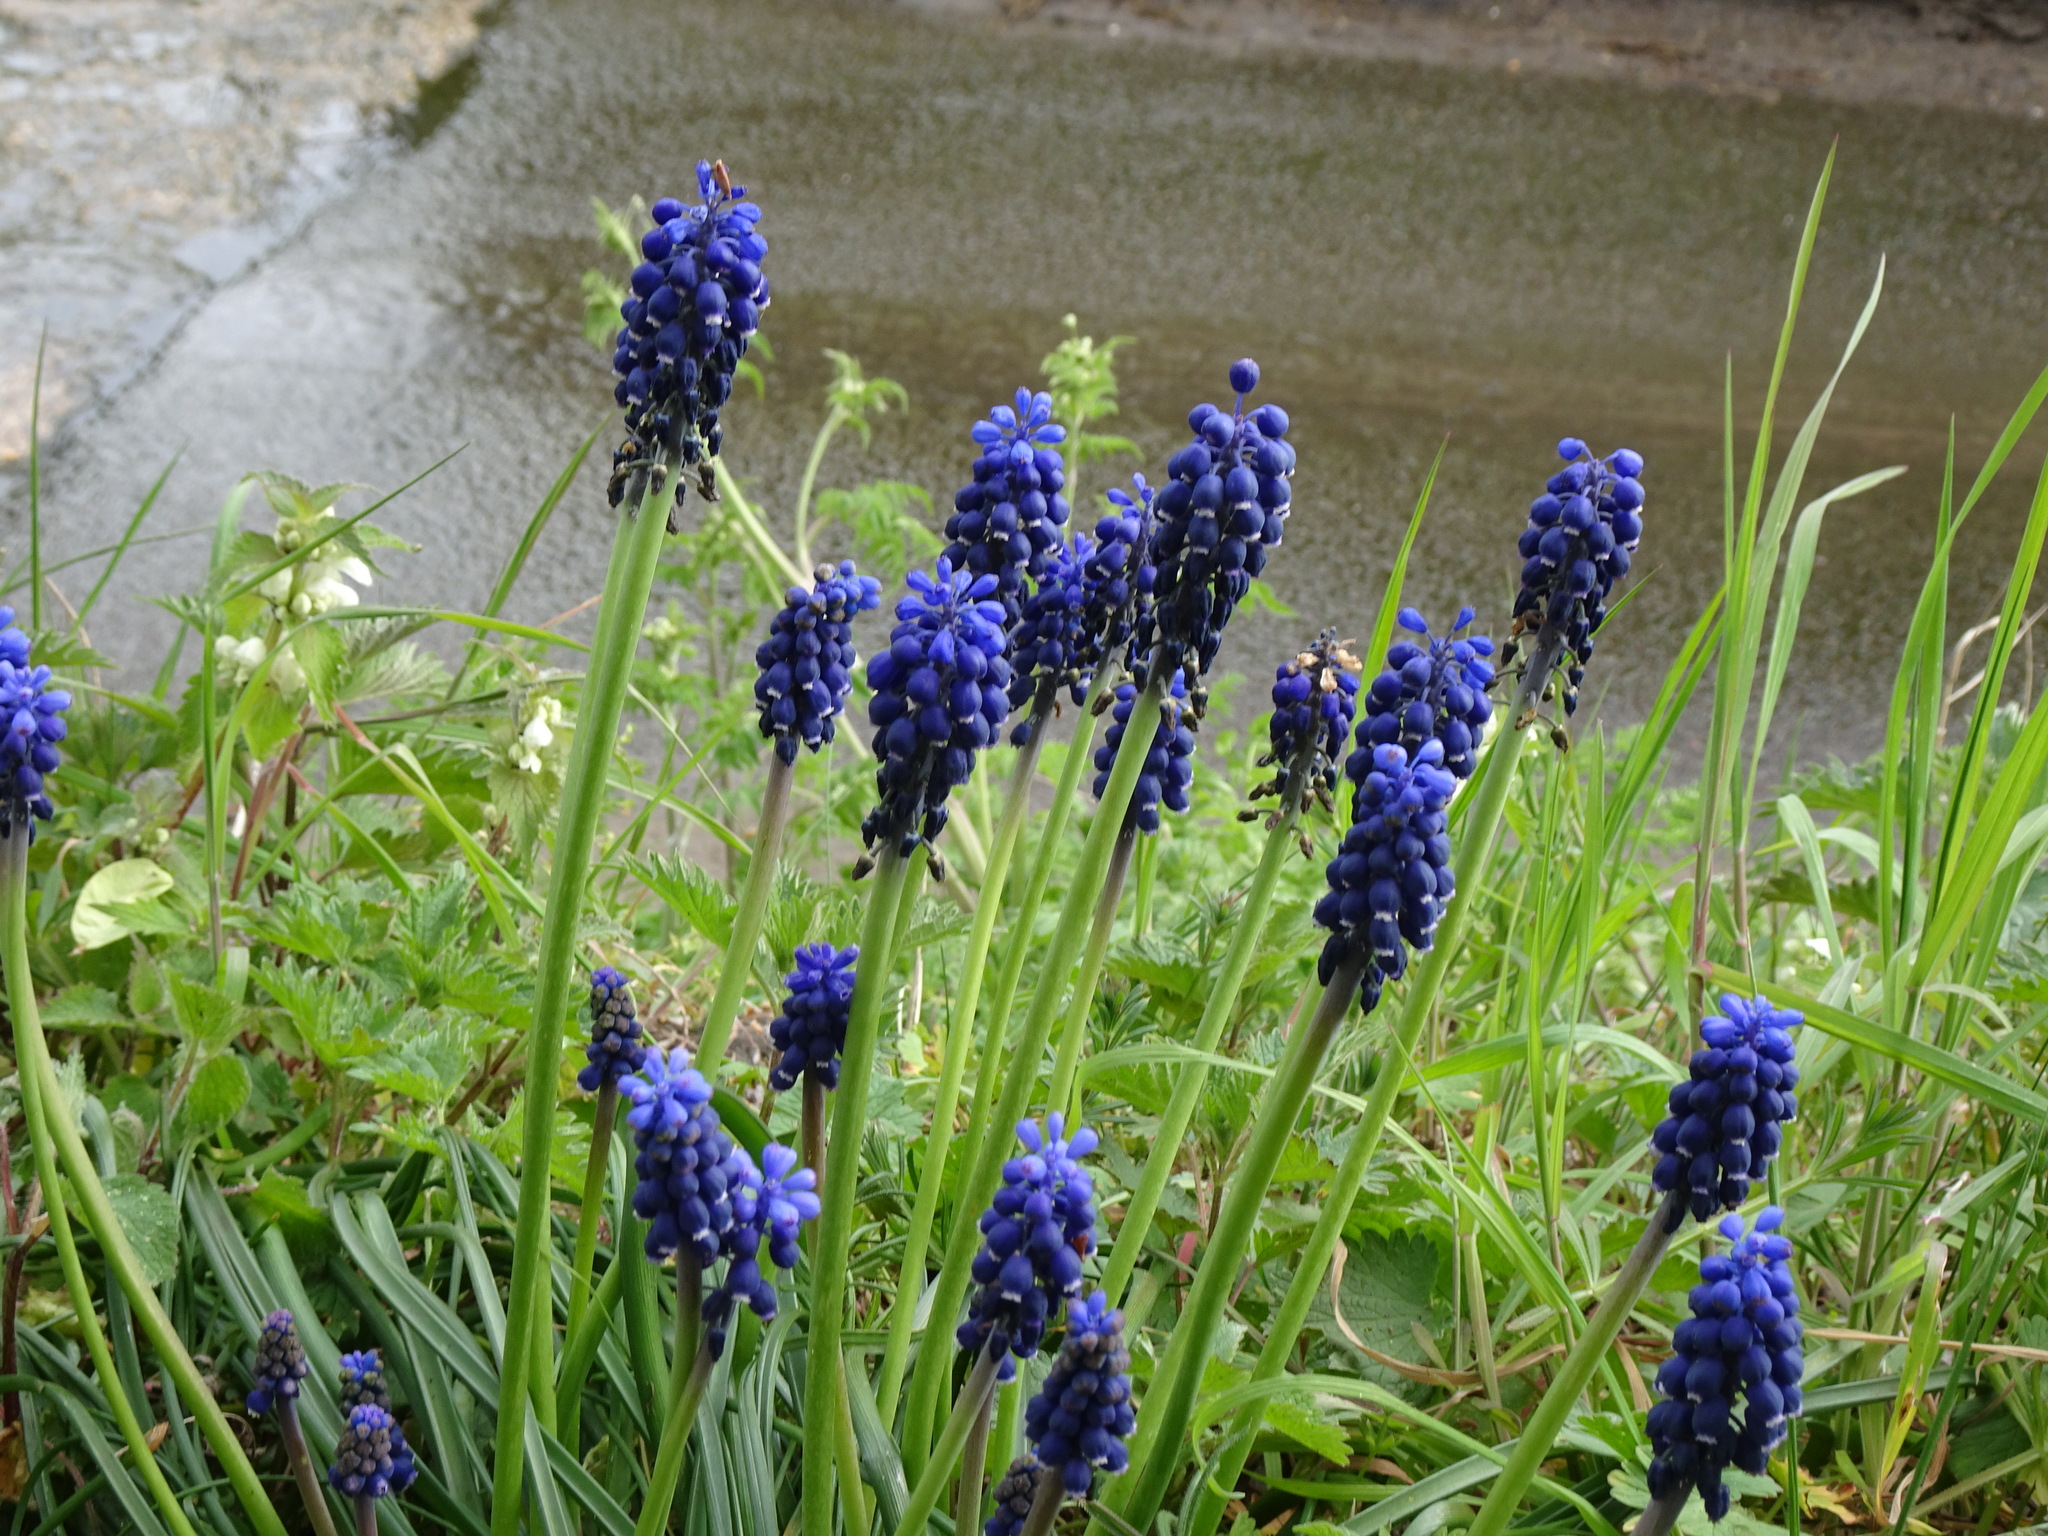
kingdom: Plantae
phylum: Tracheophyta
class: Liliopsida
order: Asparagales
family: Asparagaceae
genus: Muscari
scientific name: Muscari armeniacum
